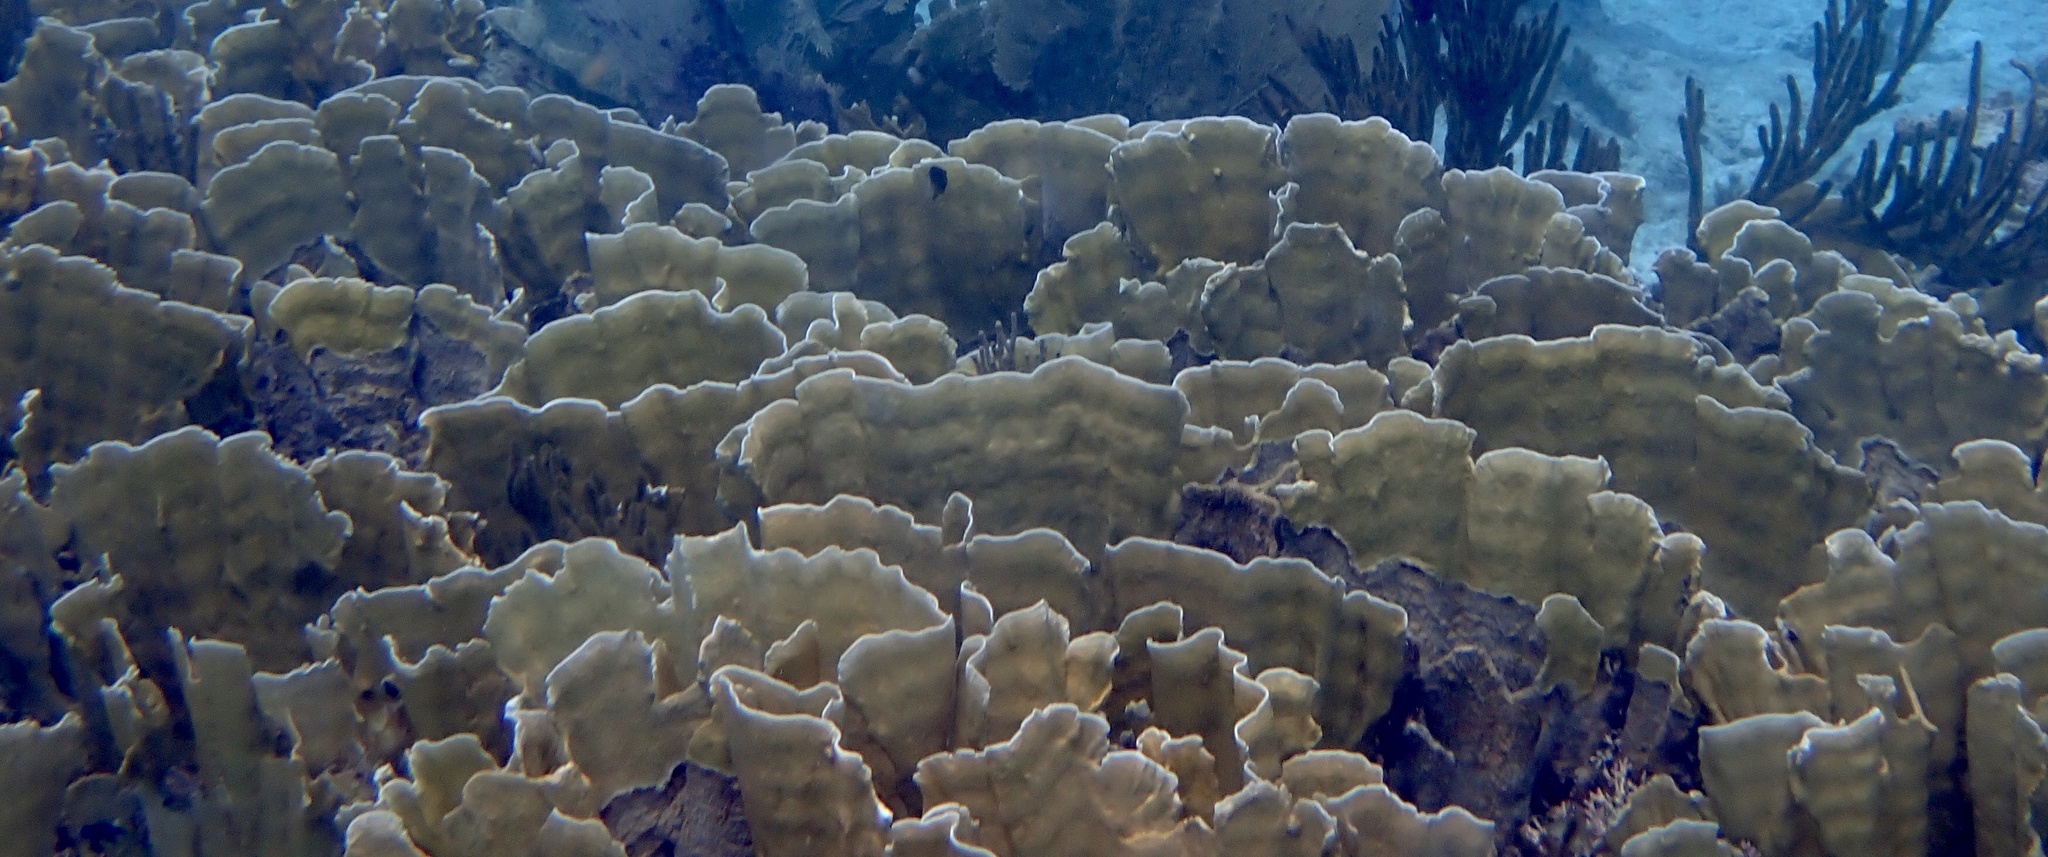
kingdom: Animalia
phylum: Cnidaria
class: Hydrozoa
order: Anthoathecata
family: Milleporidae
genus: Millepora
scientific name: Millepora complanata
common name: Bladed fire coral
